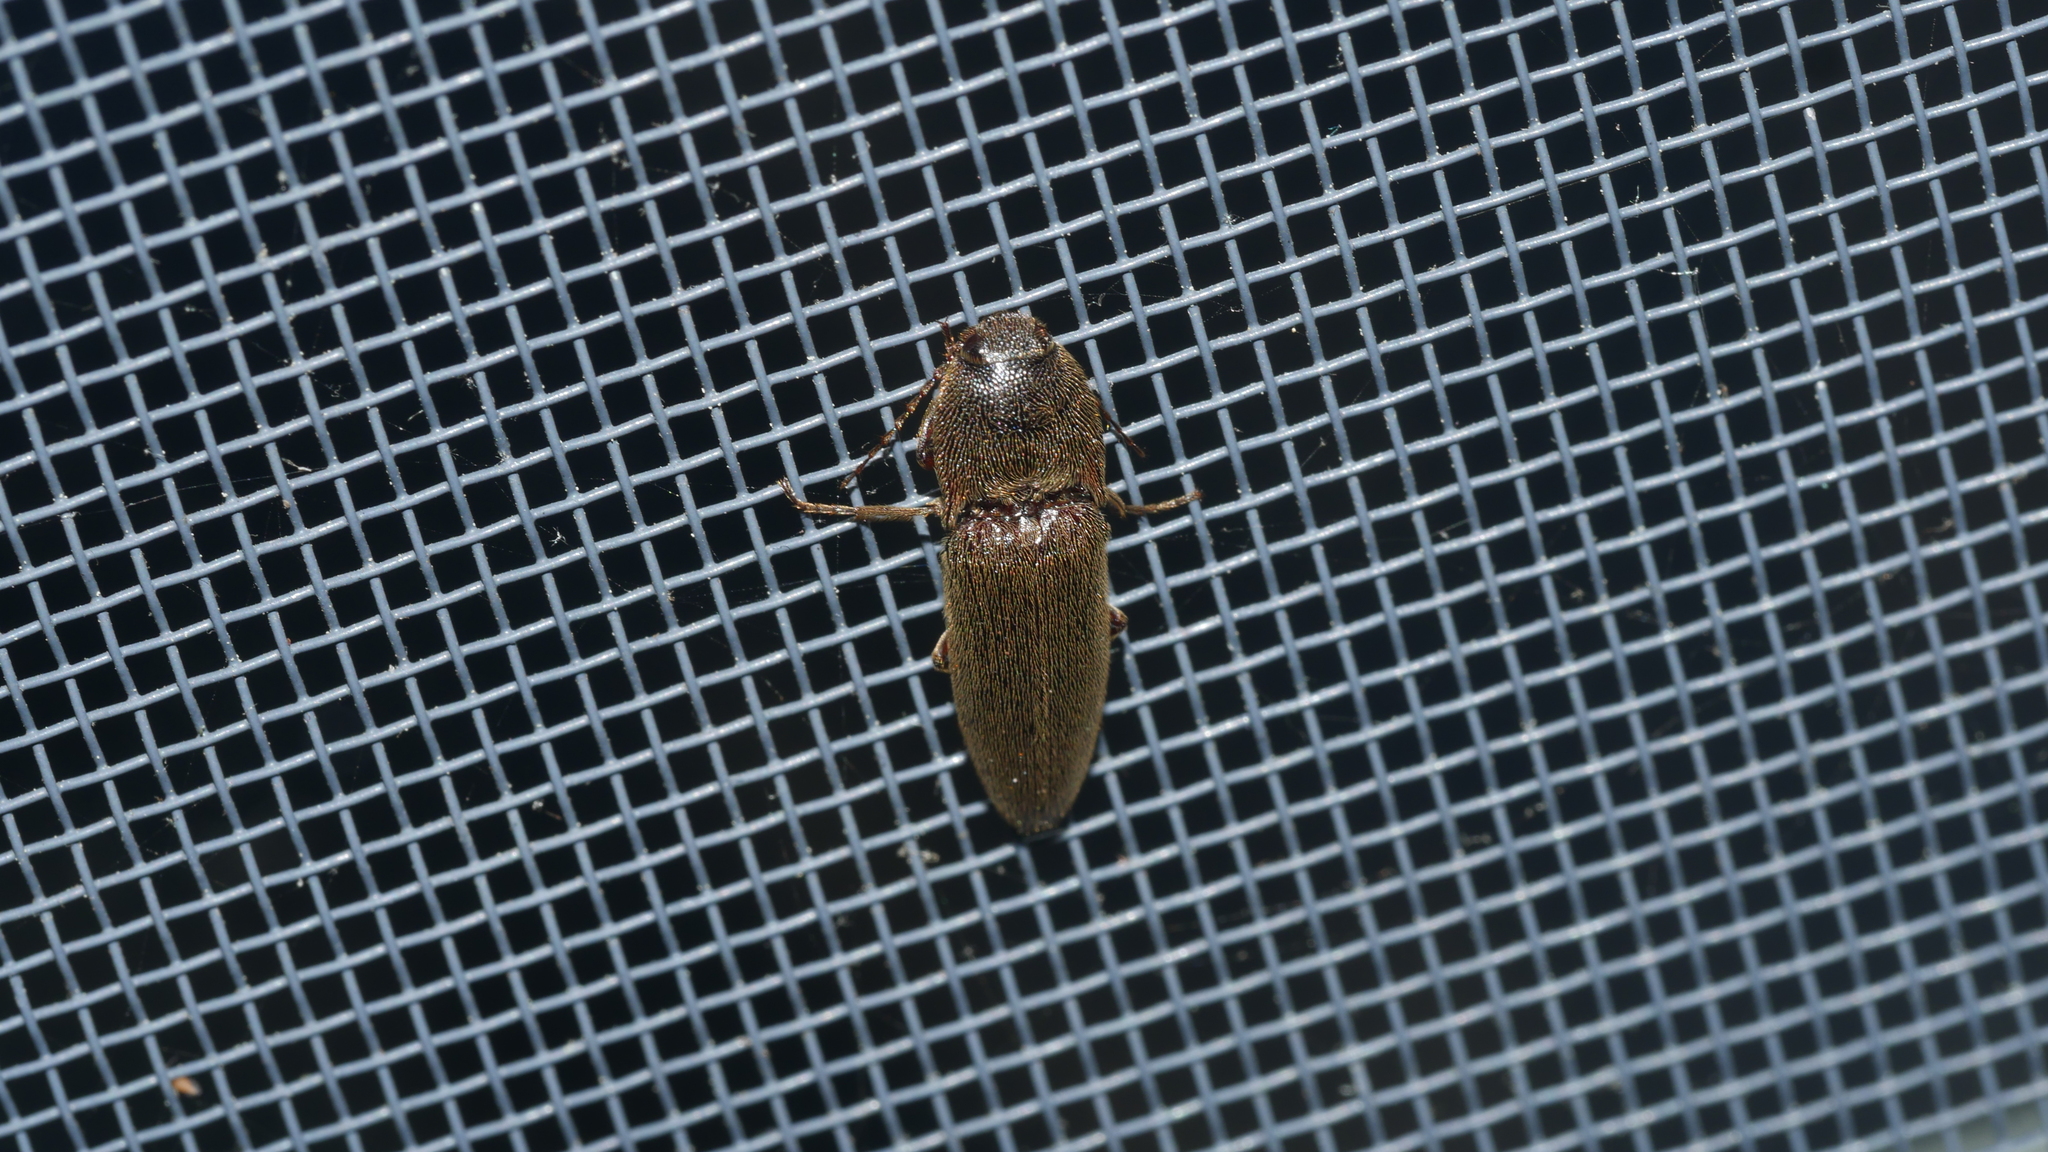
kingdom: Animalia
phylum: Arthropoda
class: Insecta
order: Coleoptera
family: Elateridae
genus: Melanotus
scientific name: Melanotus
